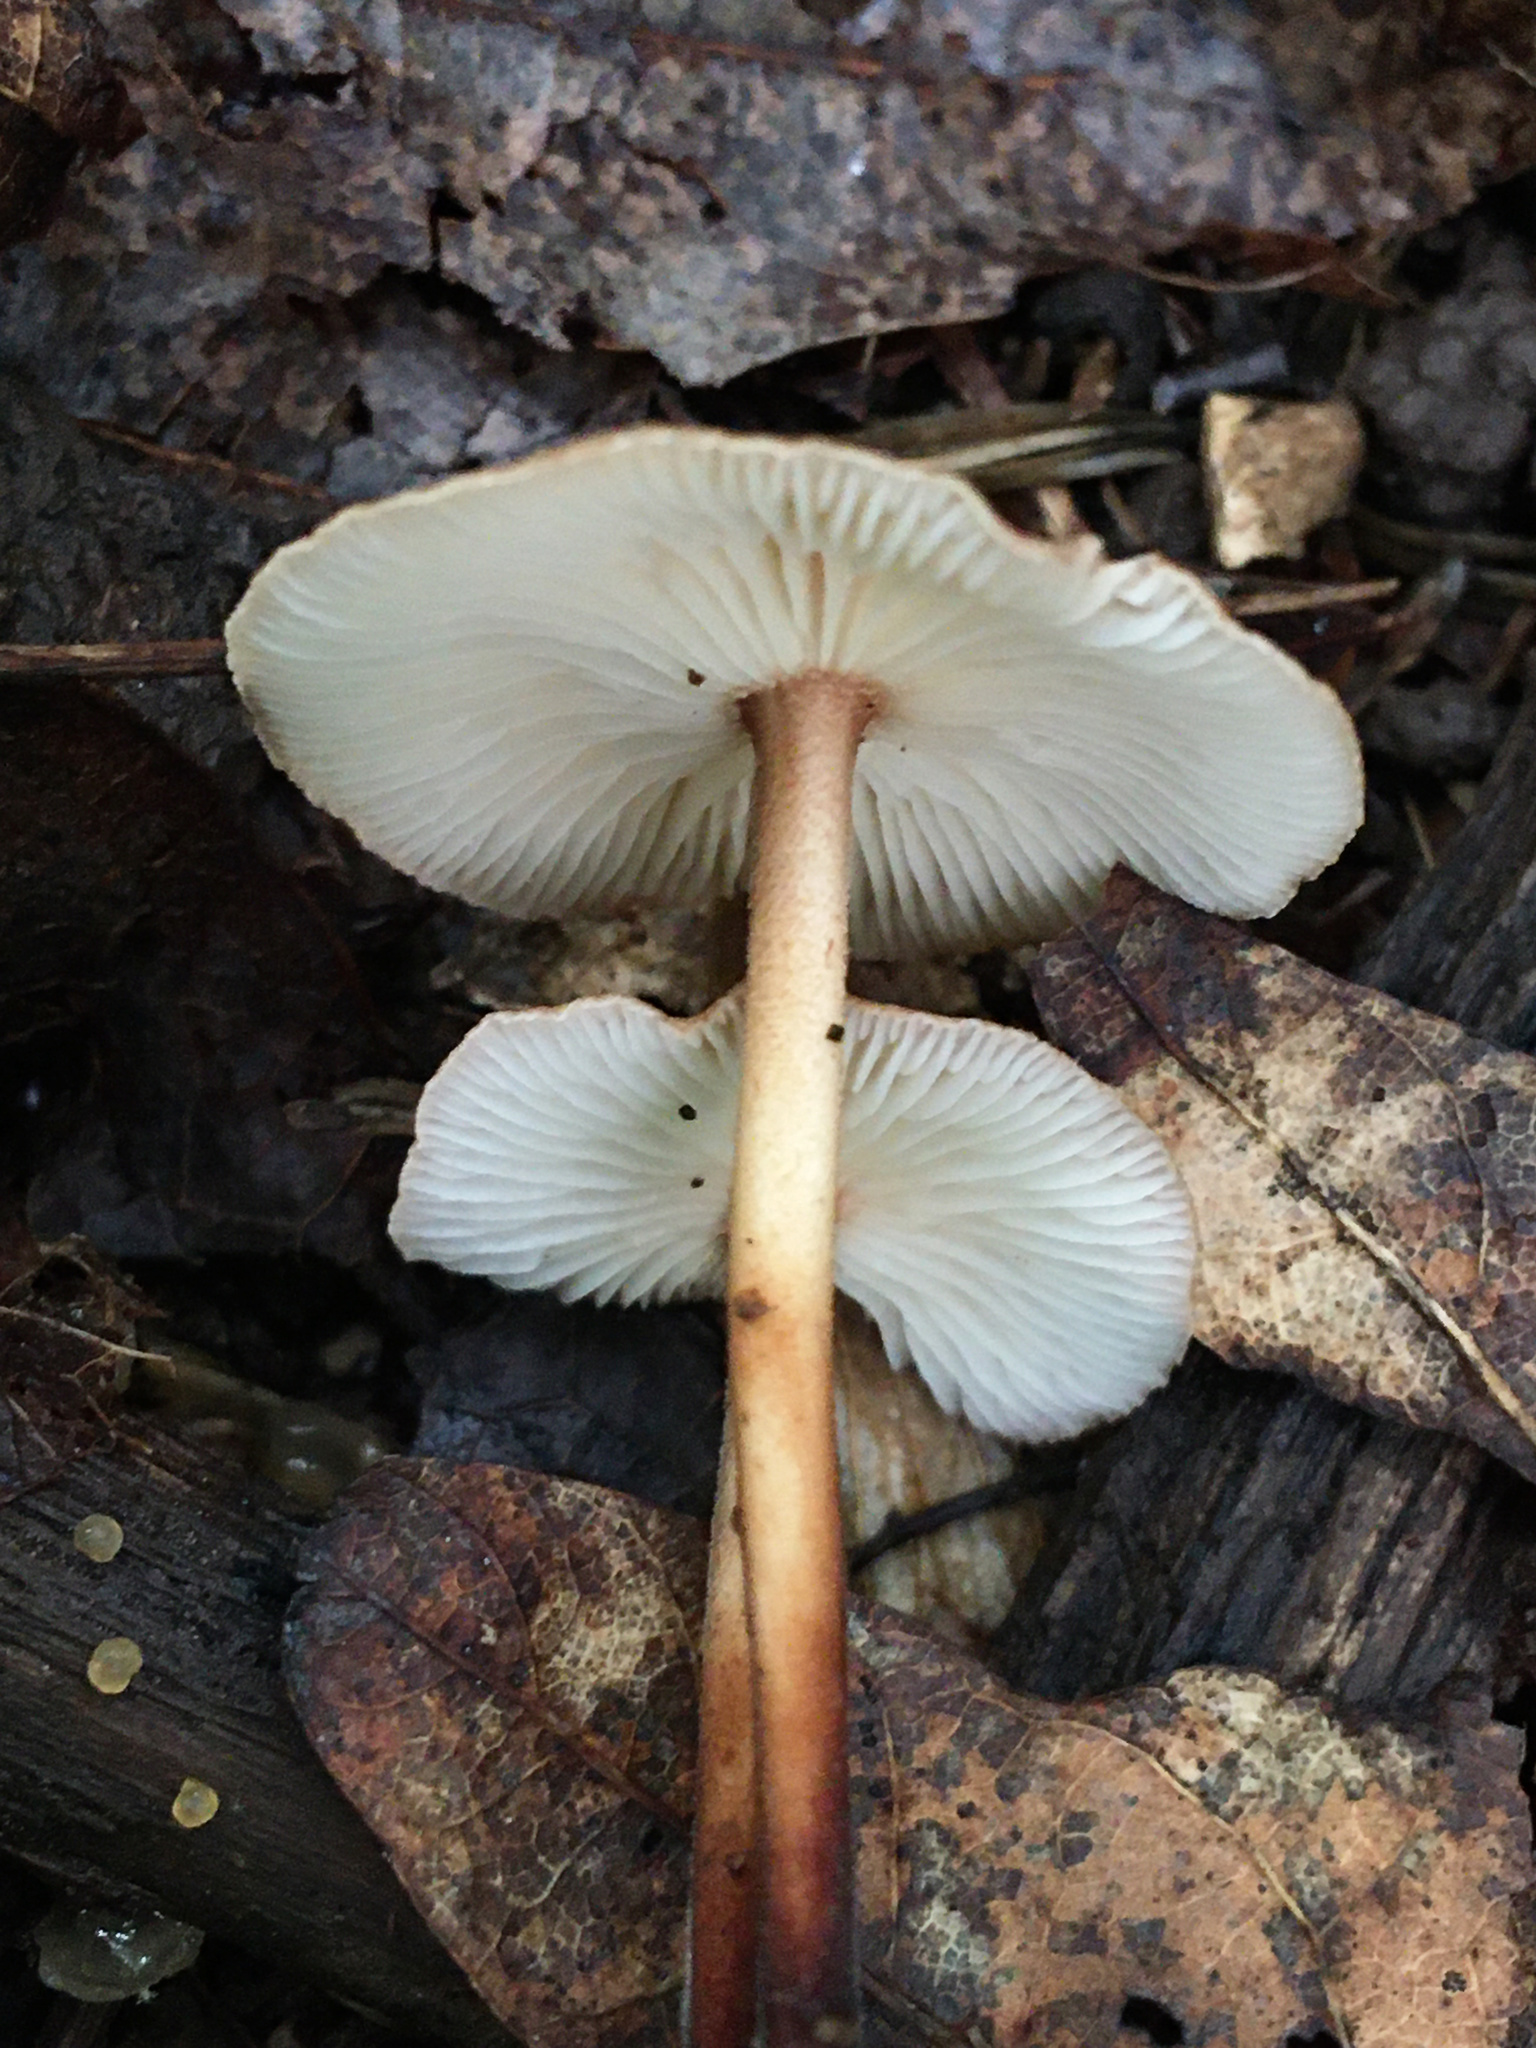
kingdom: Fungi
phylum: Basidiomycota
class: Agaricomycetes
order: Agaricales
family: Omphalotaceae
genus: Gymnopus
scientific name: Gymnopus dryophilus
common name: Penny top
